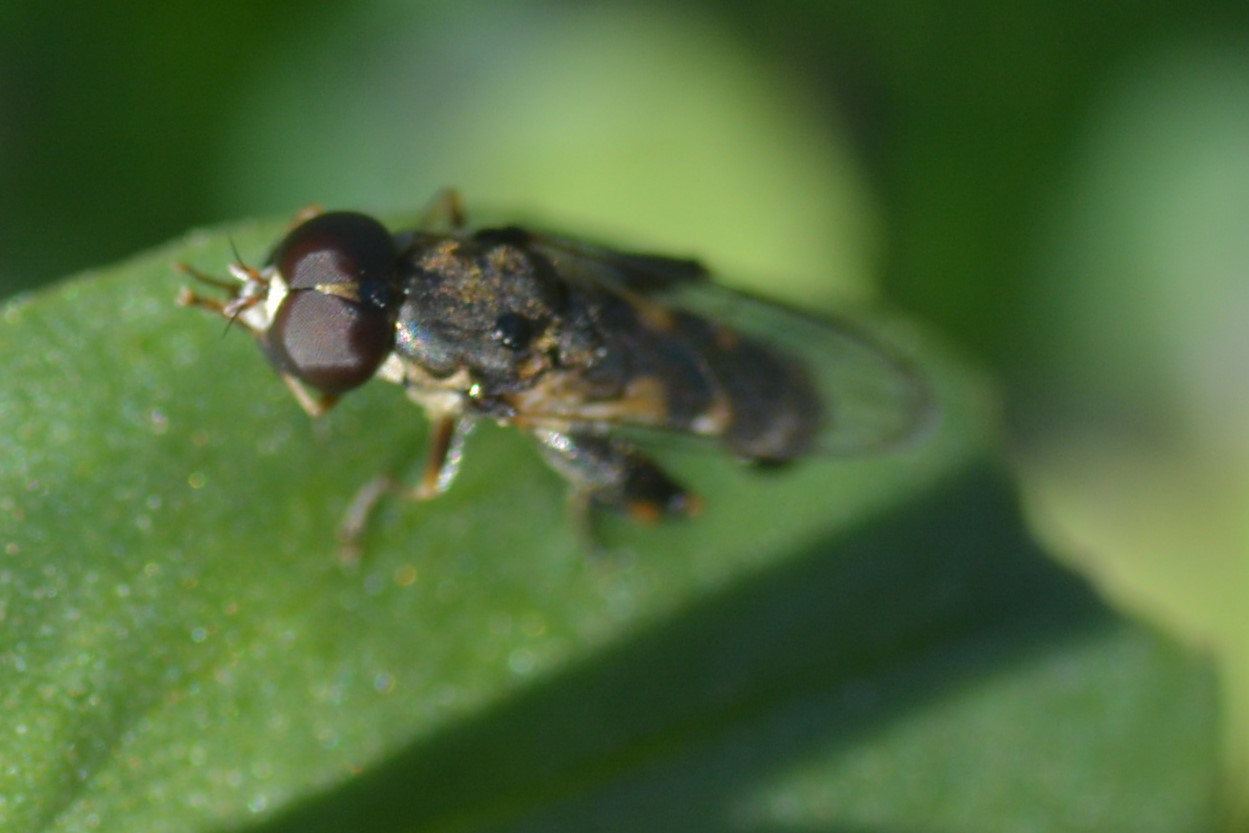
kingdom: Animalia
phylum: Arthropoda
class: Insecta
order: Diptera
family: Syrphidae
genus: Syritta
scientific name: Syritta pipiens
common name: Hover fly
